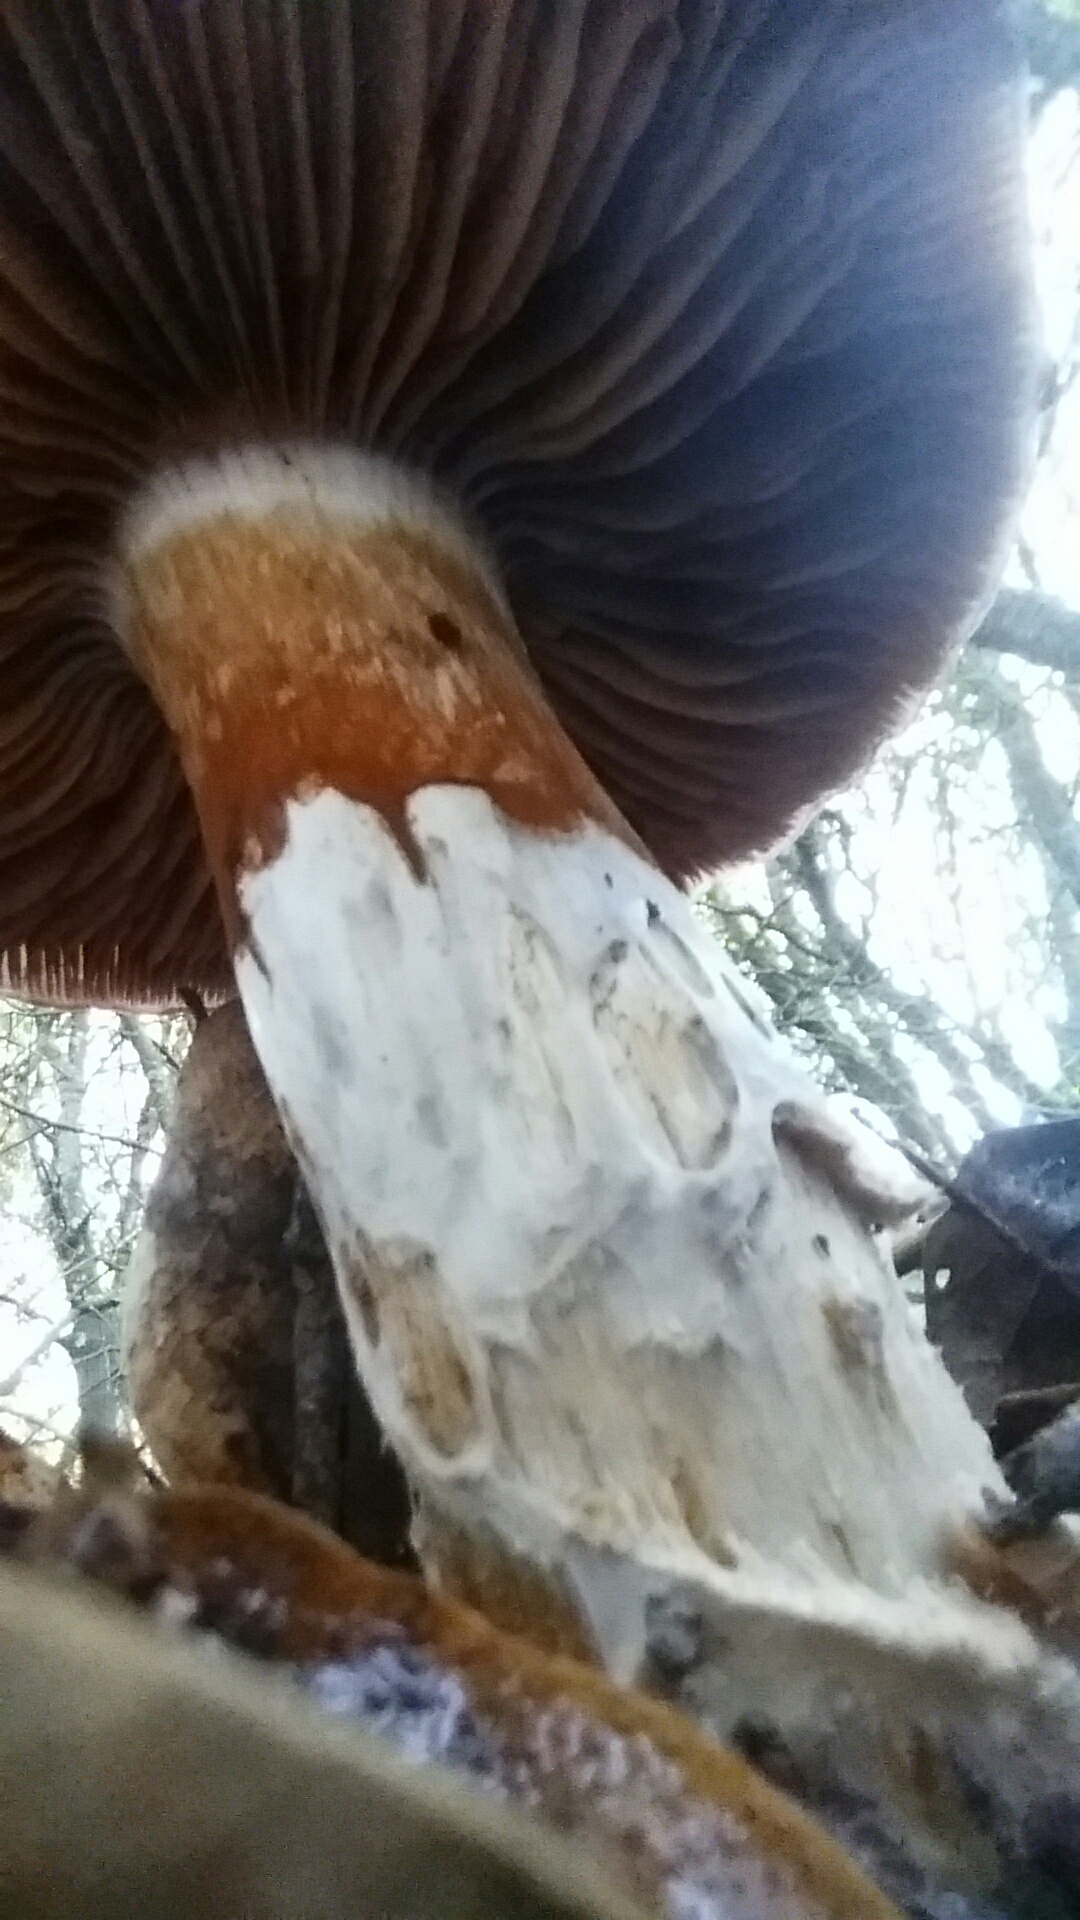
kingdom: Fungi
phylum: Basidiomycota
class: Agaricomycetes
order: Agaricales
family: Cortinariaceae
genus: Cortinarius
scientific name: Cortinarius glutinosoarmillatus
